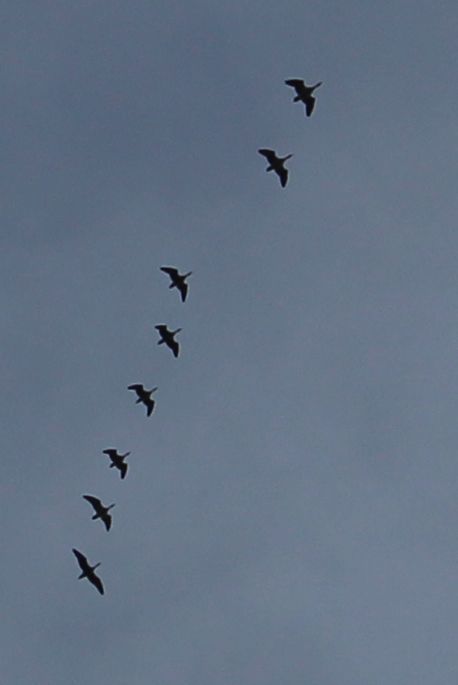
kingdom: Animalia
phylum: Chordata
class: Aves
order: Suliformes
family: Phalacrocoracidae
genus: Phalacrocorax
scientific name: Phalacrocorax carbo
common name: Great cormorant
